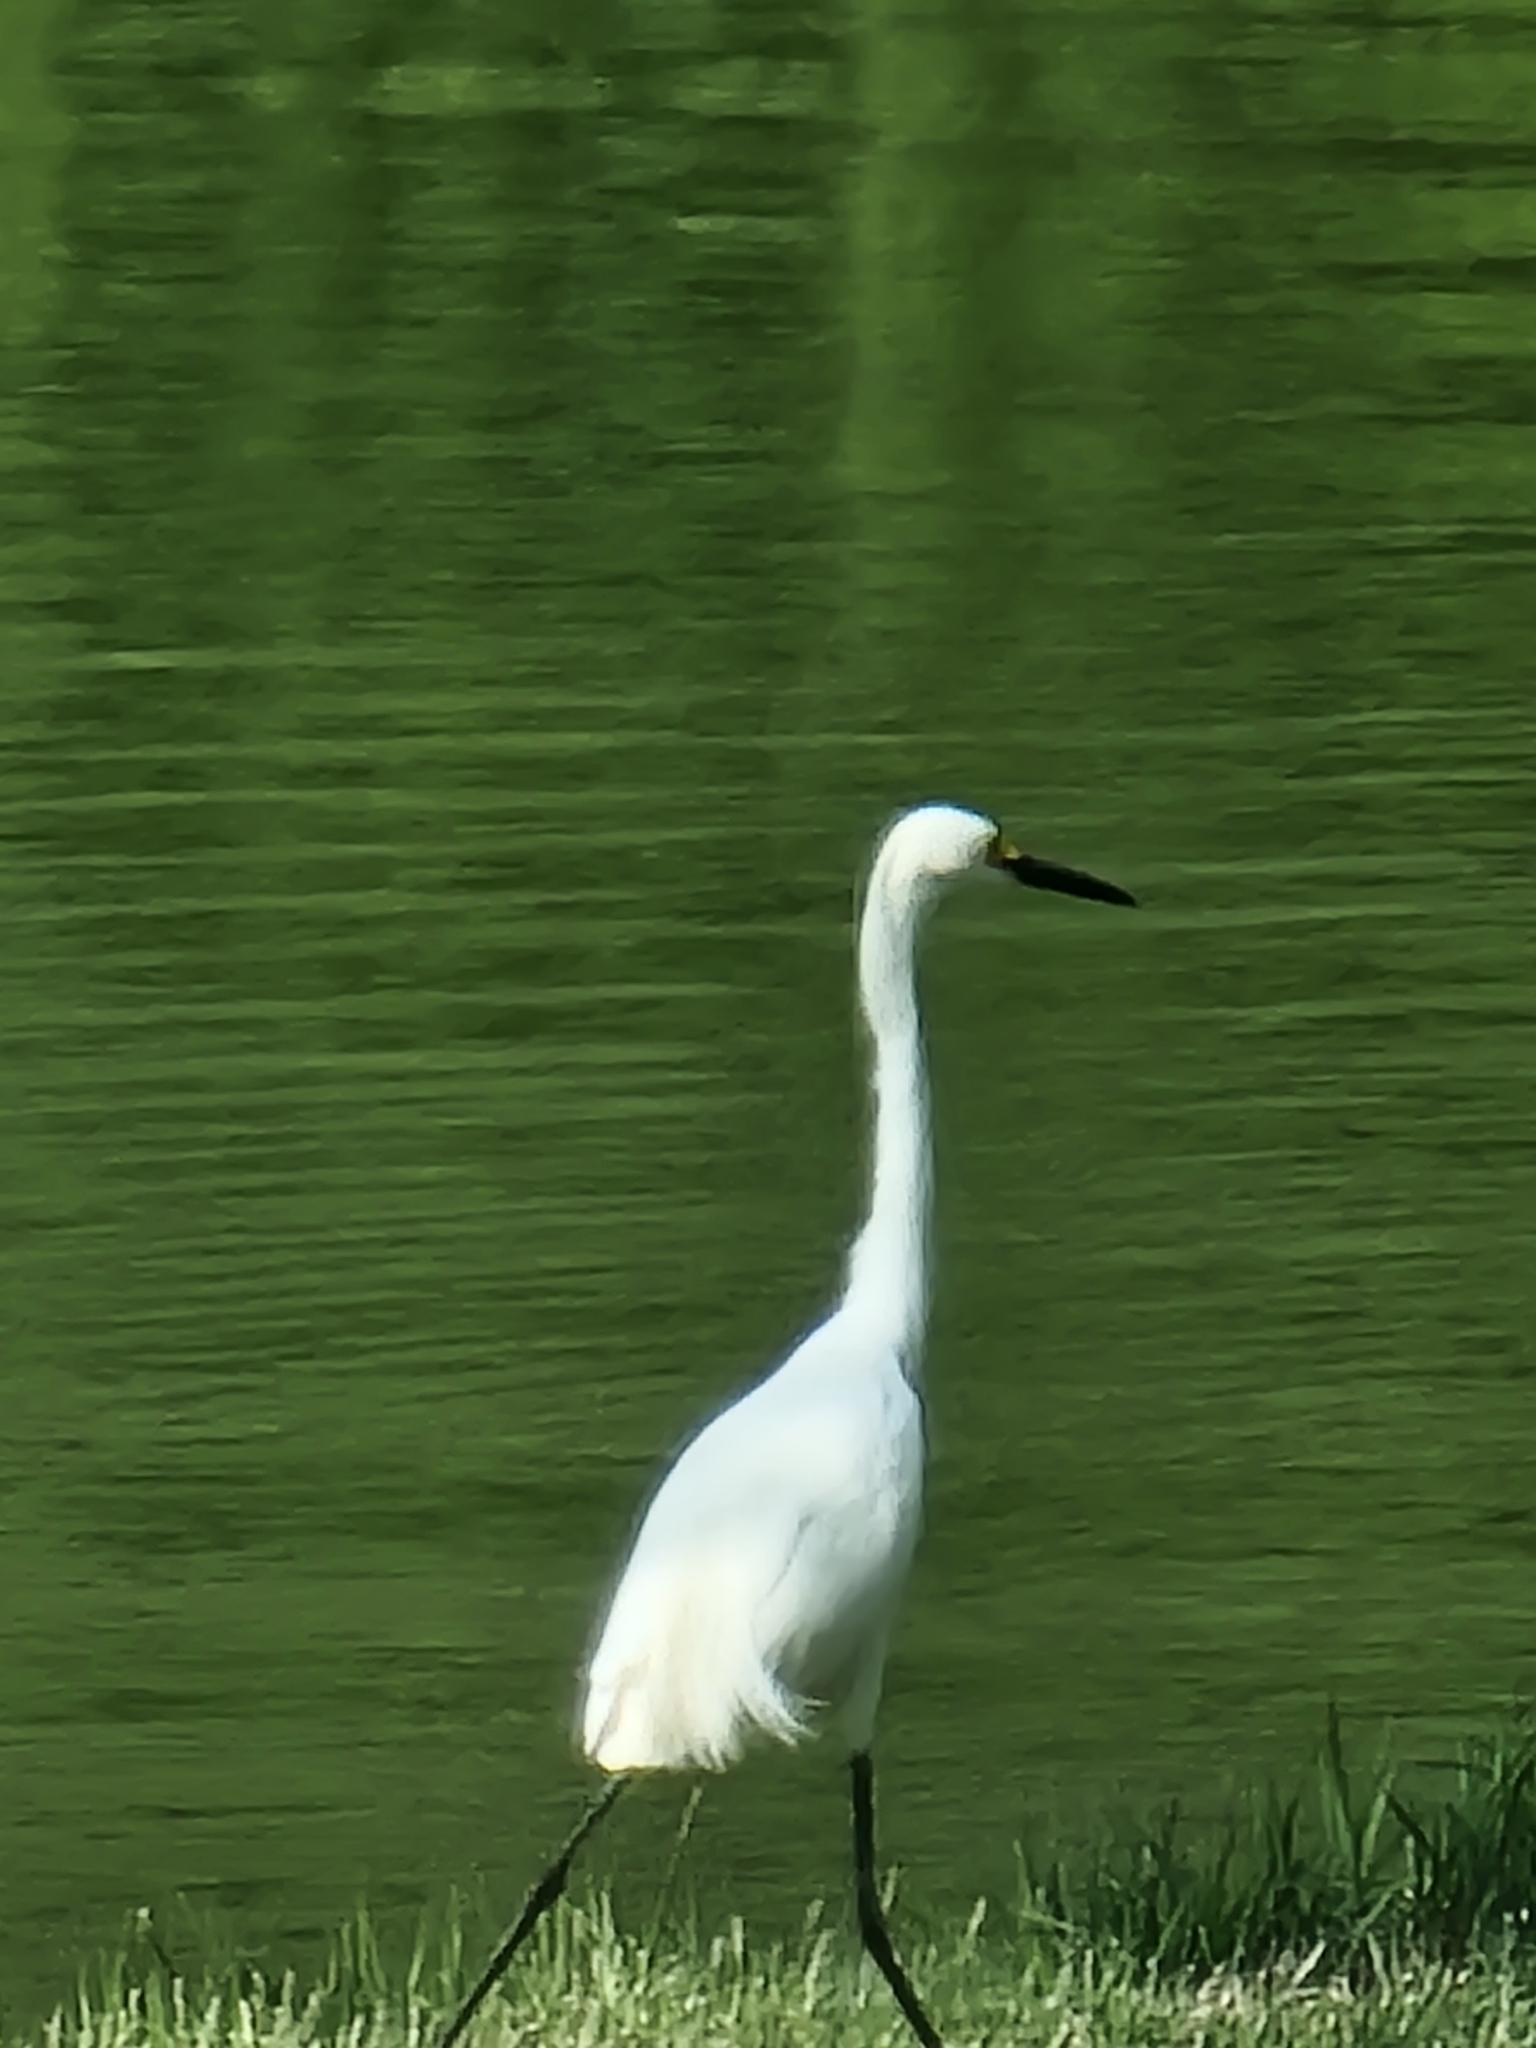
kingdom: Animalia
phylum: Chordata
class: Aves
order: Pelecaniformes
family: Ardeidae
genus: Egretta
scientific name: Egretta thula
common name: Snowy egret
